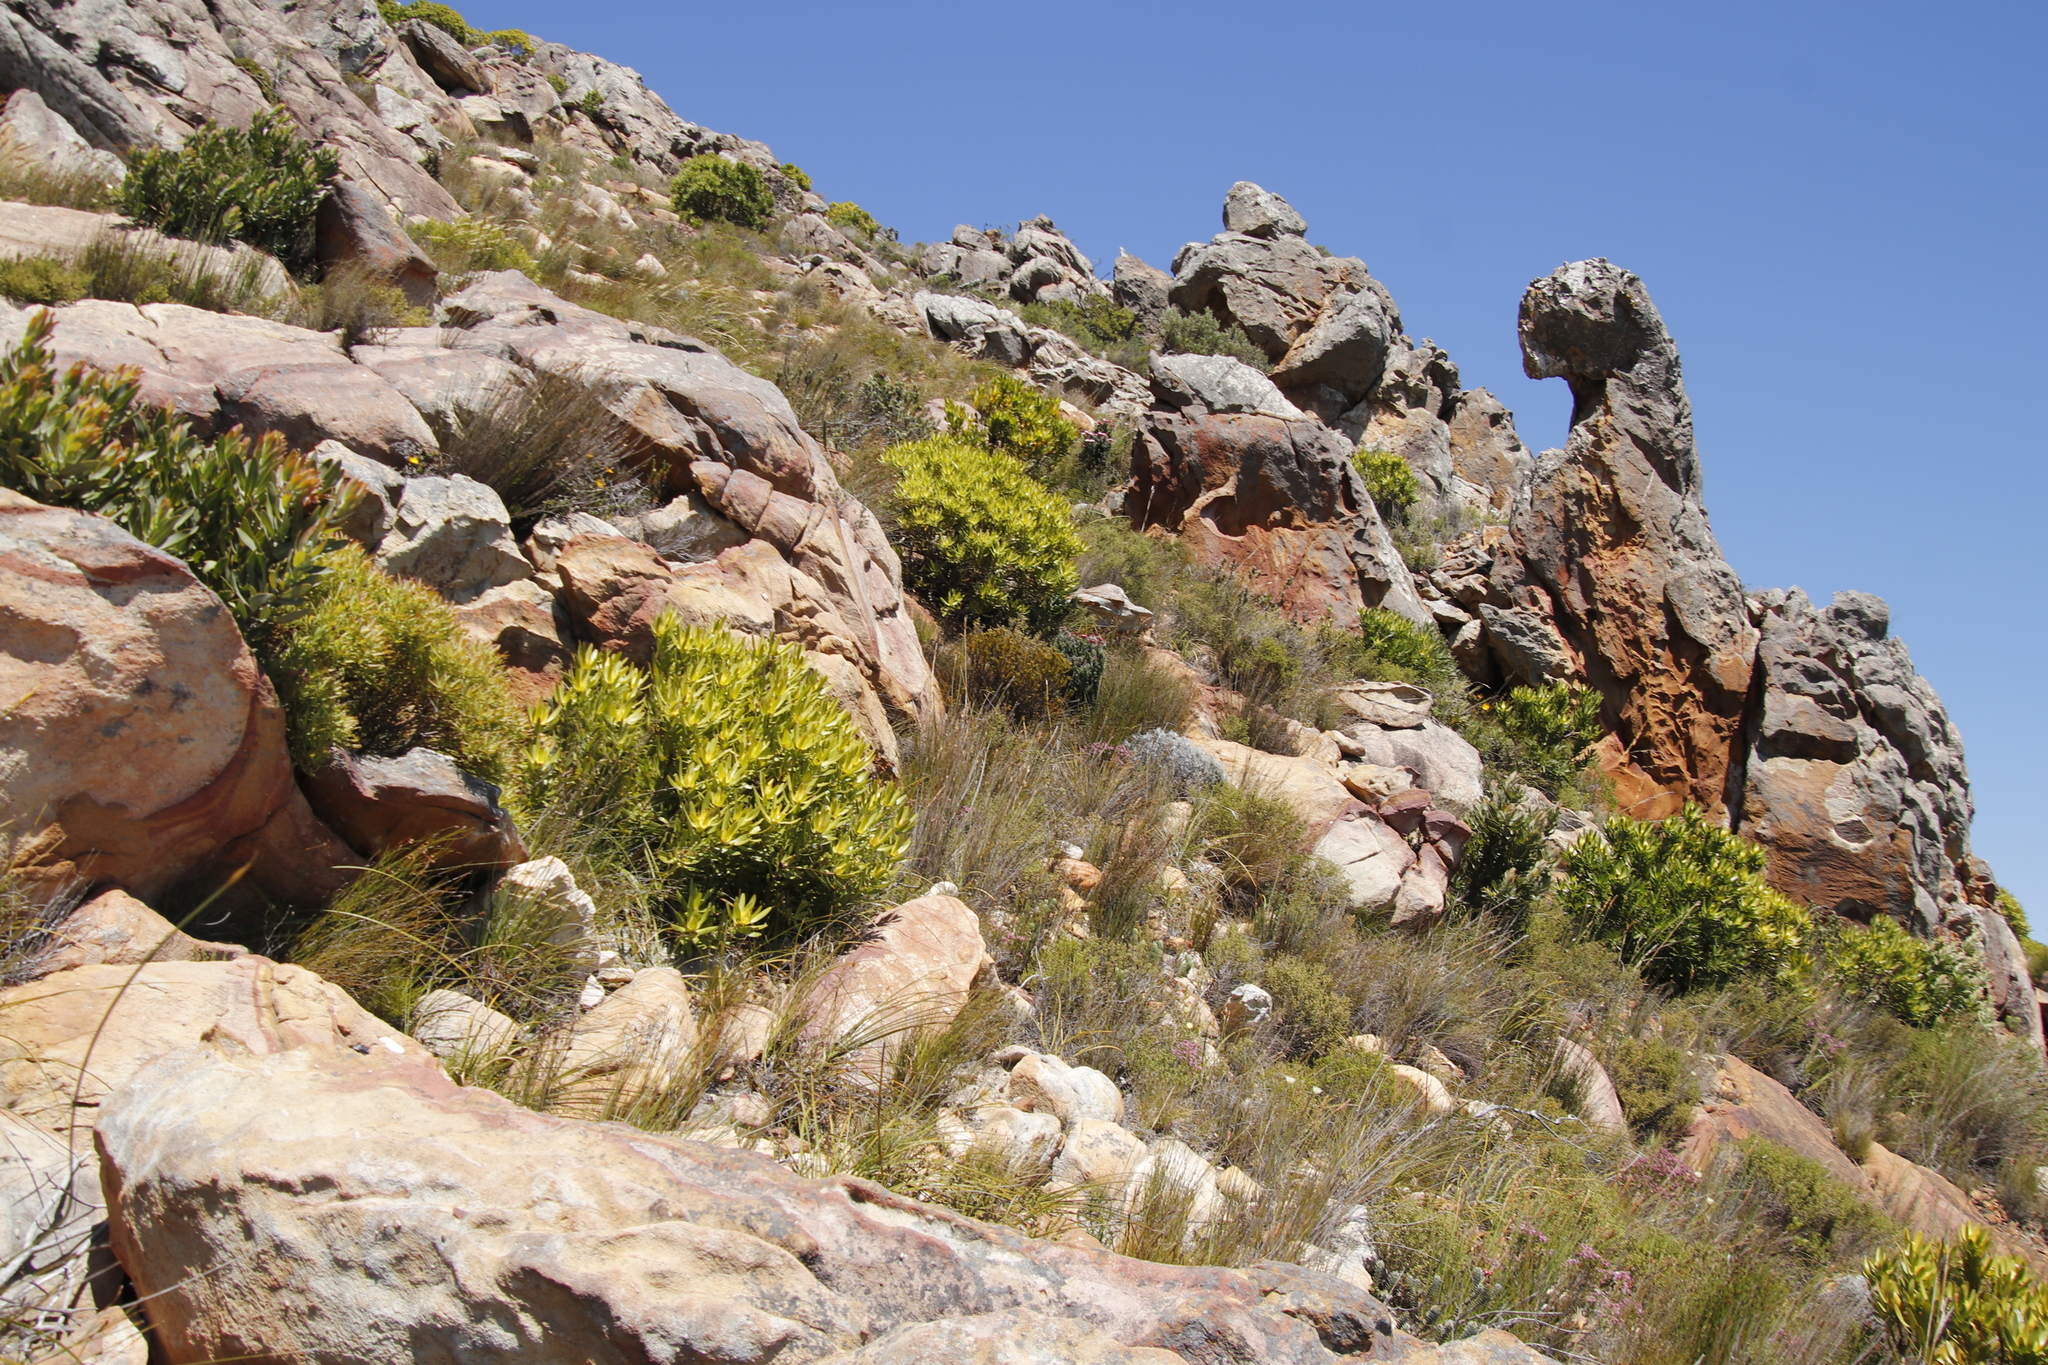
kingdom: Plantae
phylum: Tracheophyta
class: Magnoliopsida
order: Proteales
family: Proteaceae
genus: Leucadendron
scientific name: Leucadendron laureolum
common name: Golden sunshinebush
